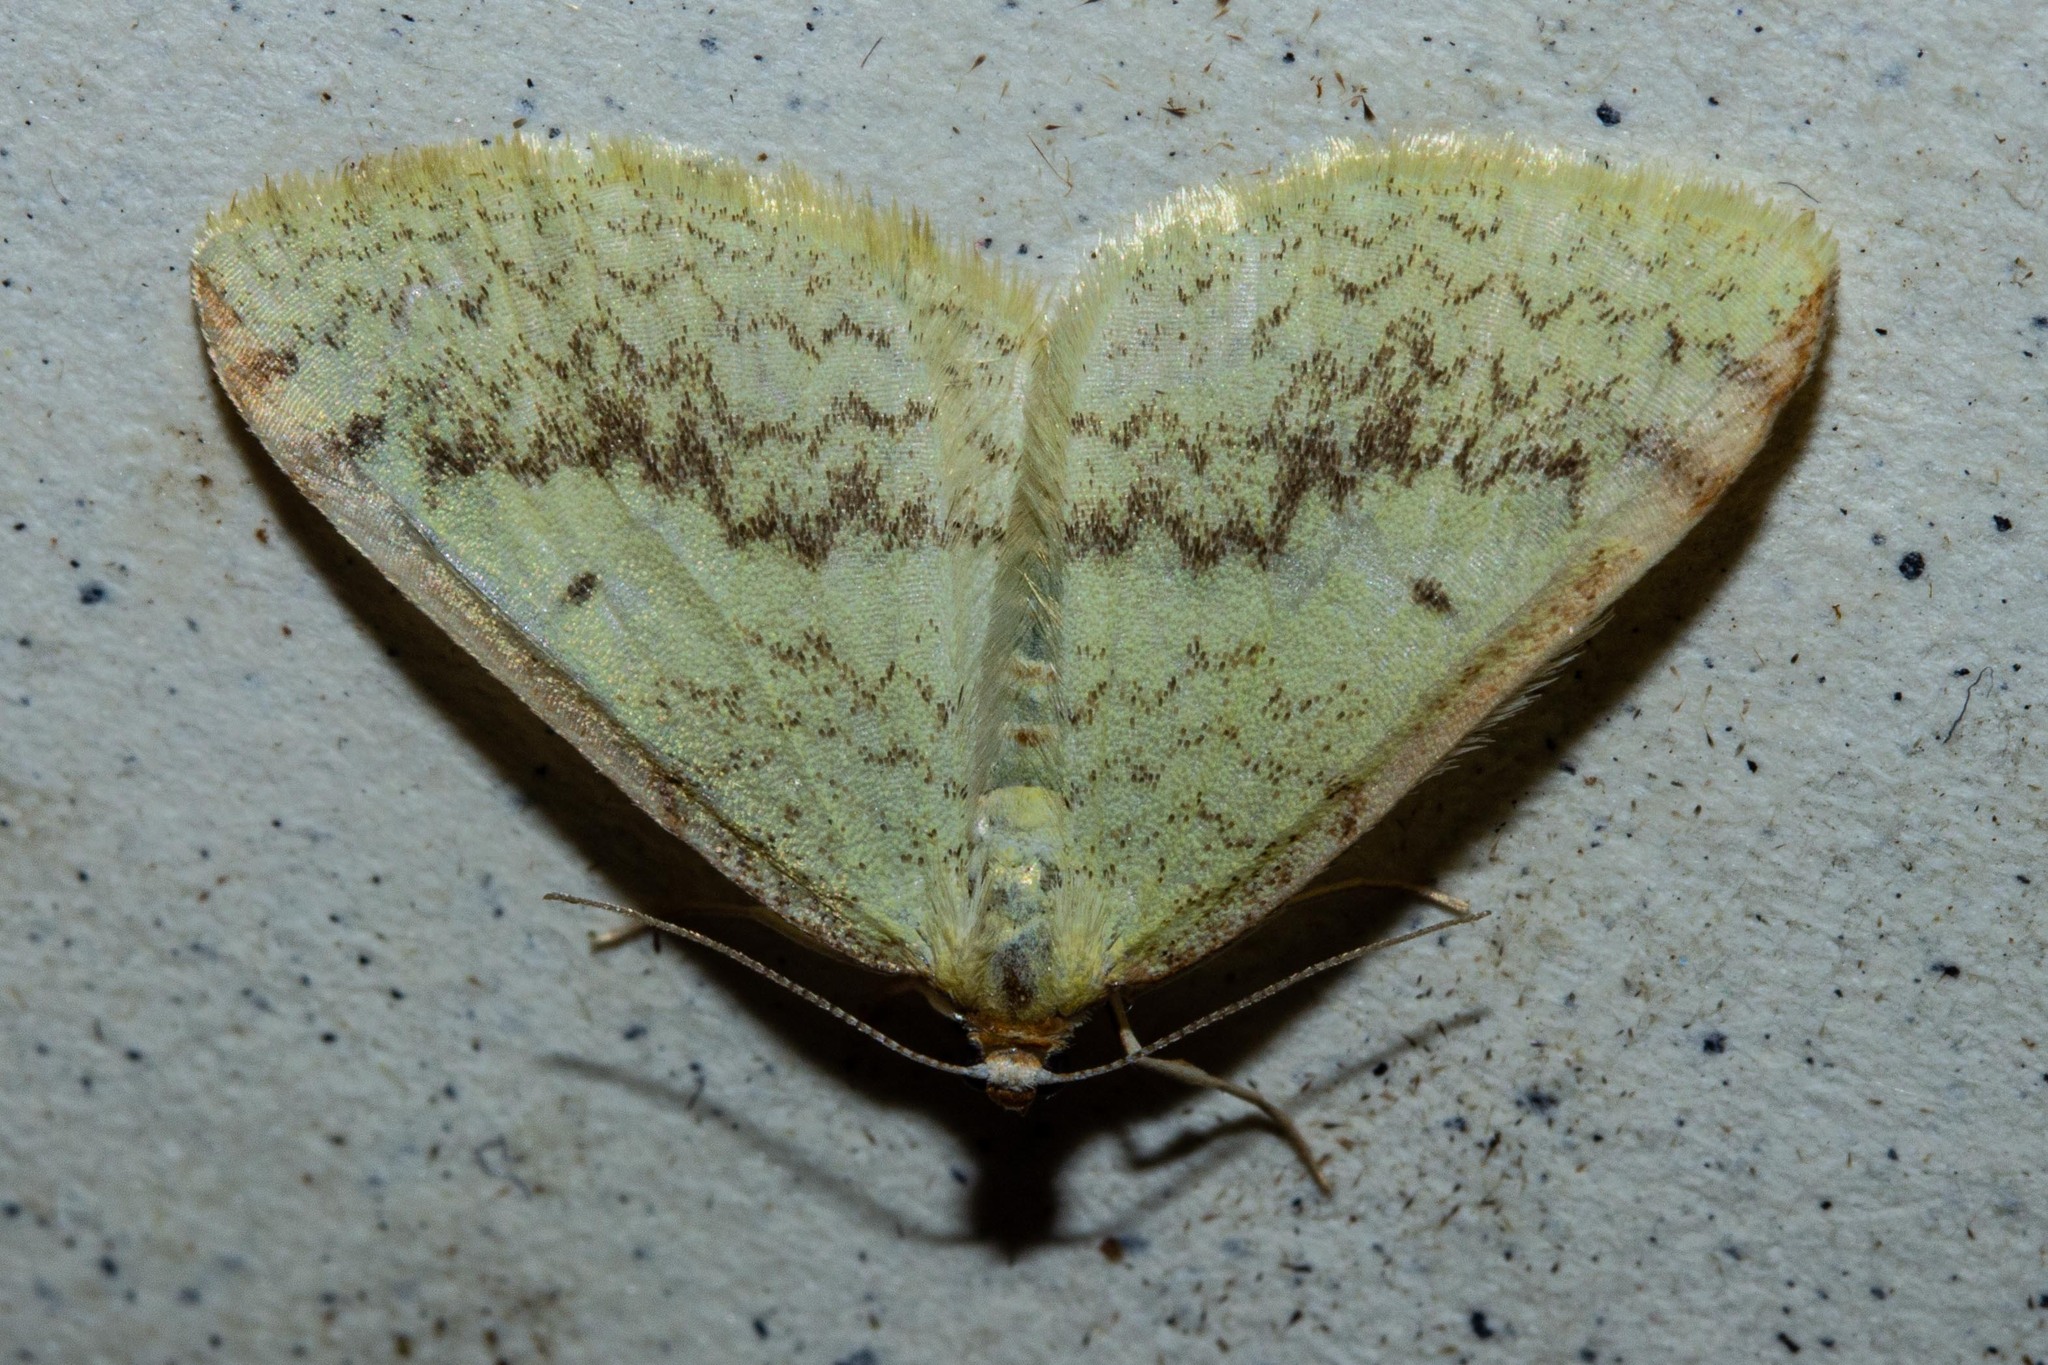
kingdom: Animalia
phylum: Arthropoda
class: Insecta
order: Lepidoptera
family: Geometridae
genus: Epiphryne
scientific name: Epiphryne undosata
